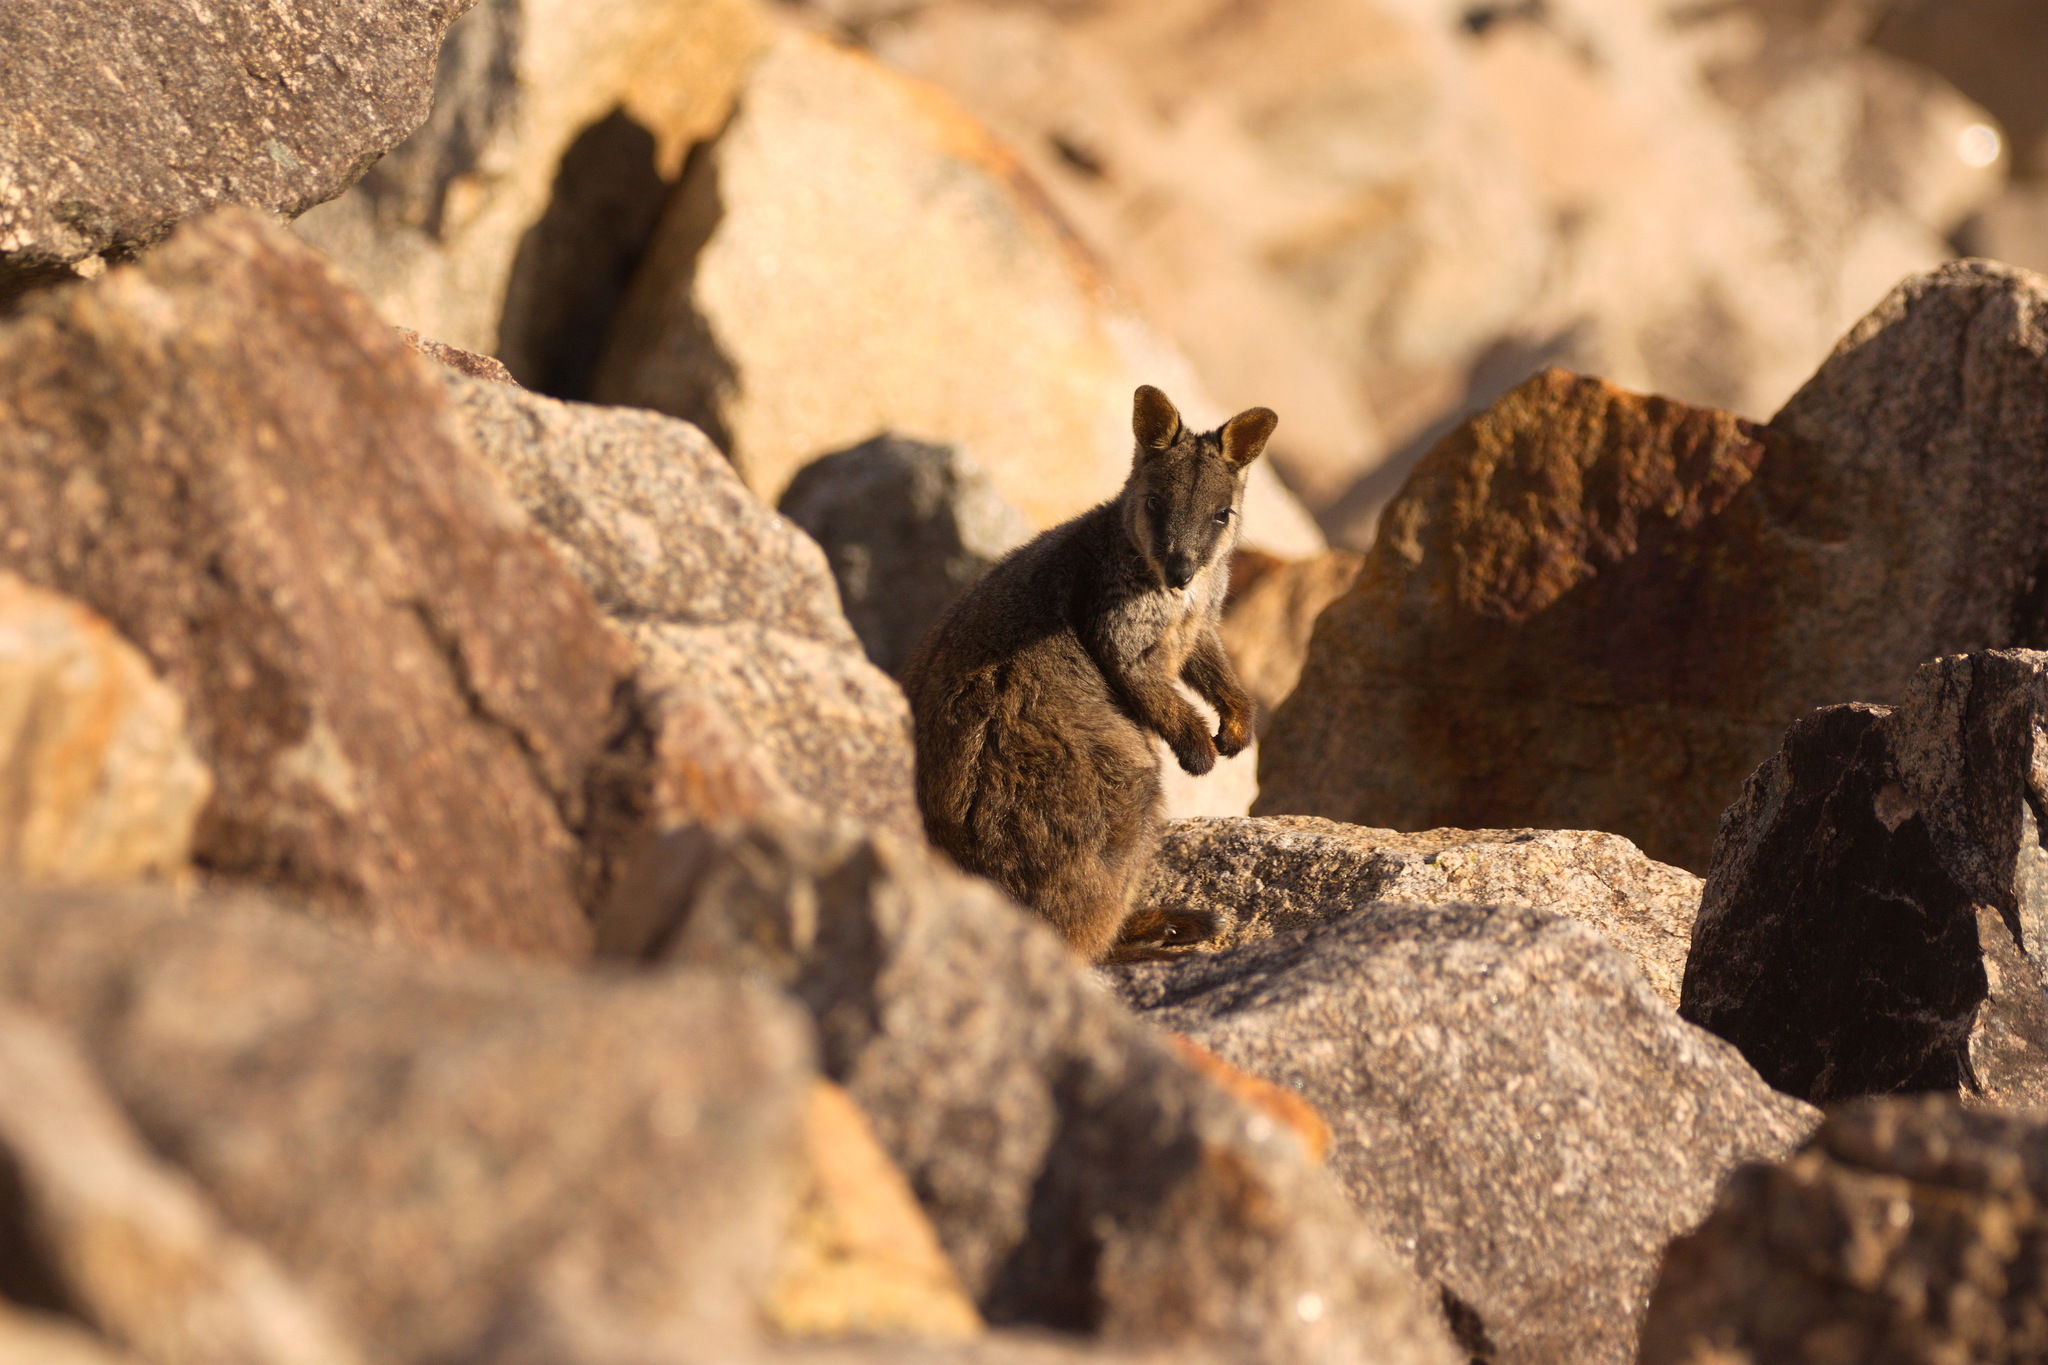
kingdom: Animalia
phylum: Chordata
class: Mammalia
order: Diprotodontia
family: Macropodidae
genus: Petrogale
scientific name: Petrogale penicillata
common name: Brush-tailed rock-wallaby
